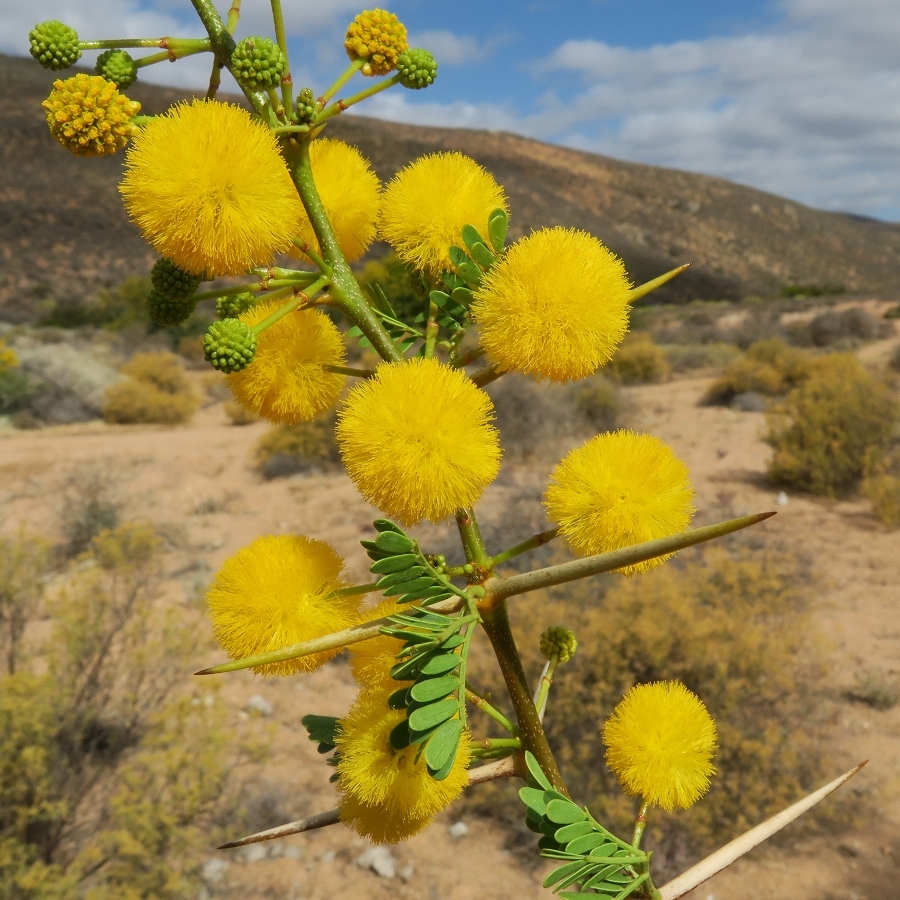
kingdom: Plantae
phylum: Tracheophyta
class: Magnoliopsida
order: Fabales
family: Fabaceae
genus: Vachellia
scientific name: Vachellia karroo
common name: Sweet thorn
